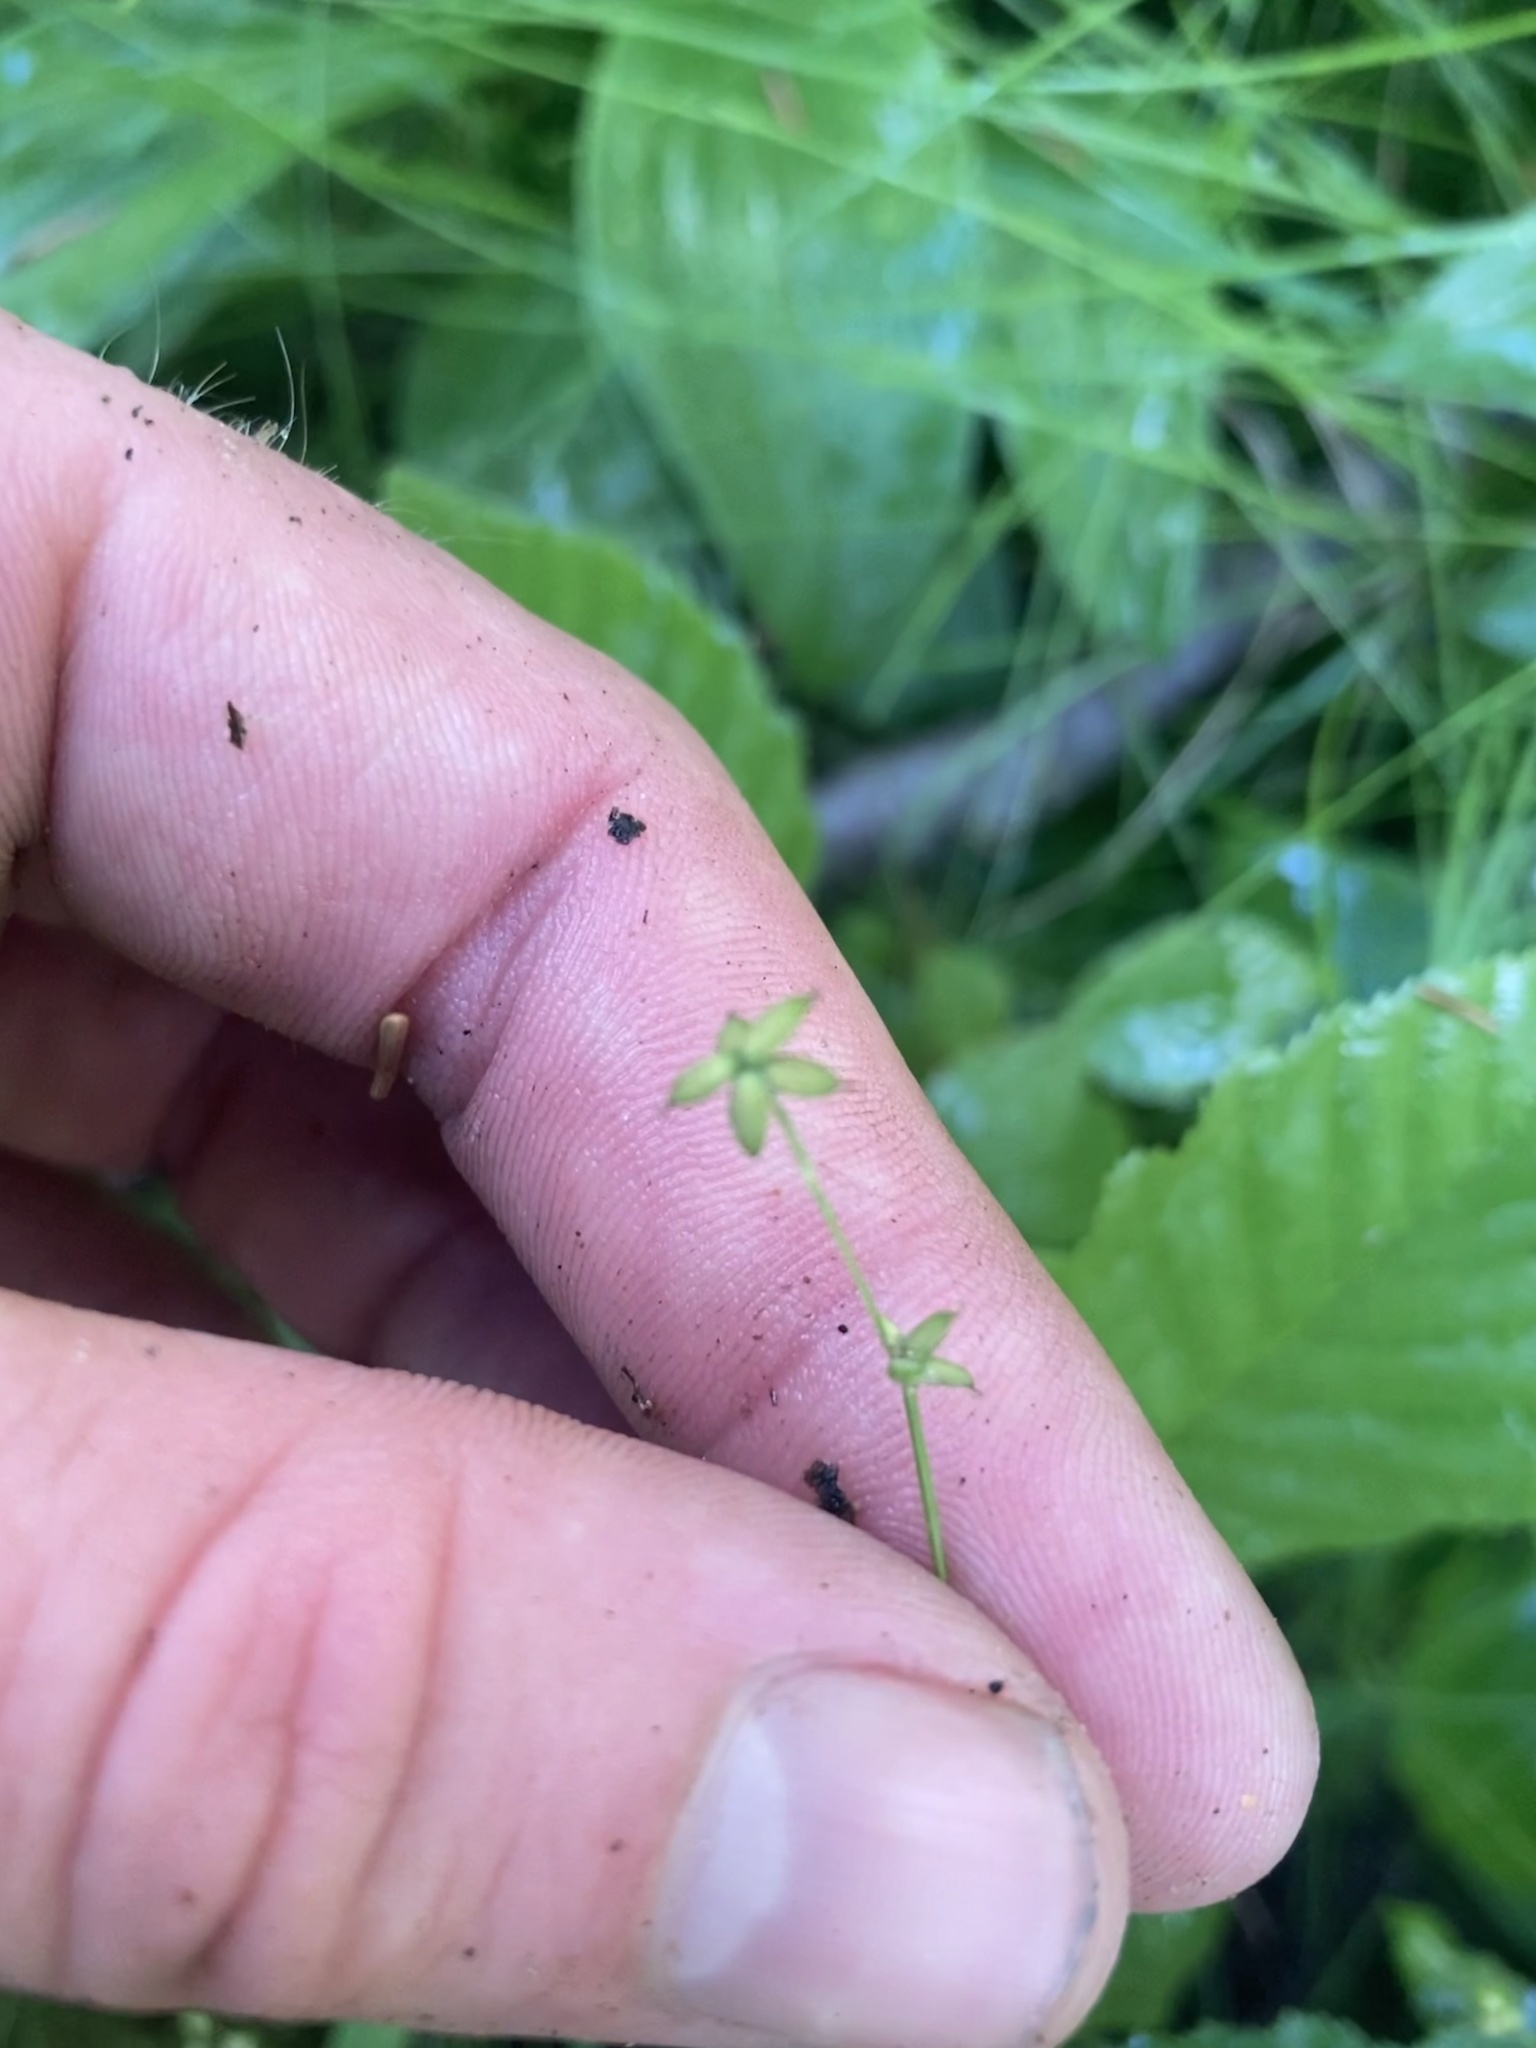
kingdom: Plantae
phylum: Tracheophyta
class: Liliopsida
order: Poales
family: Cyperaceae
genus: Carex
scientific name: Carex loliacea
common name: Ryegrass sedge
